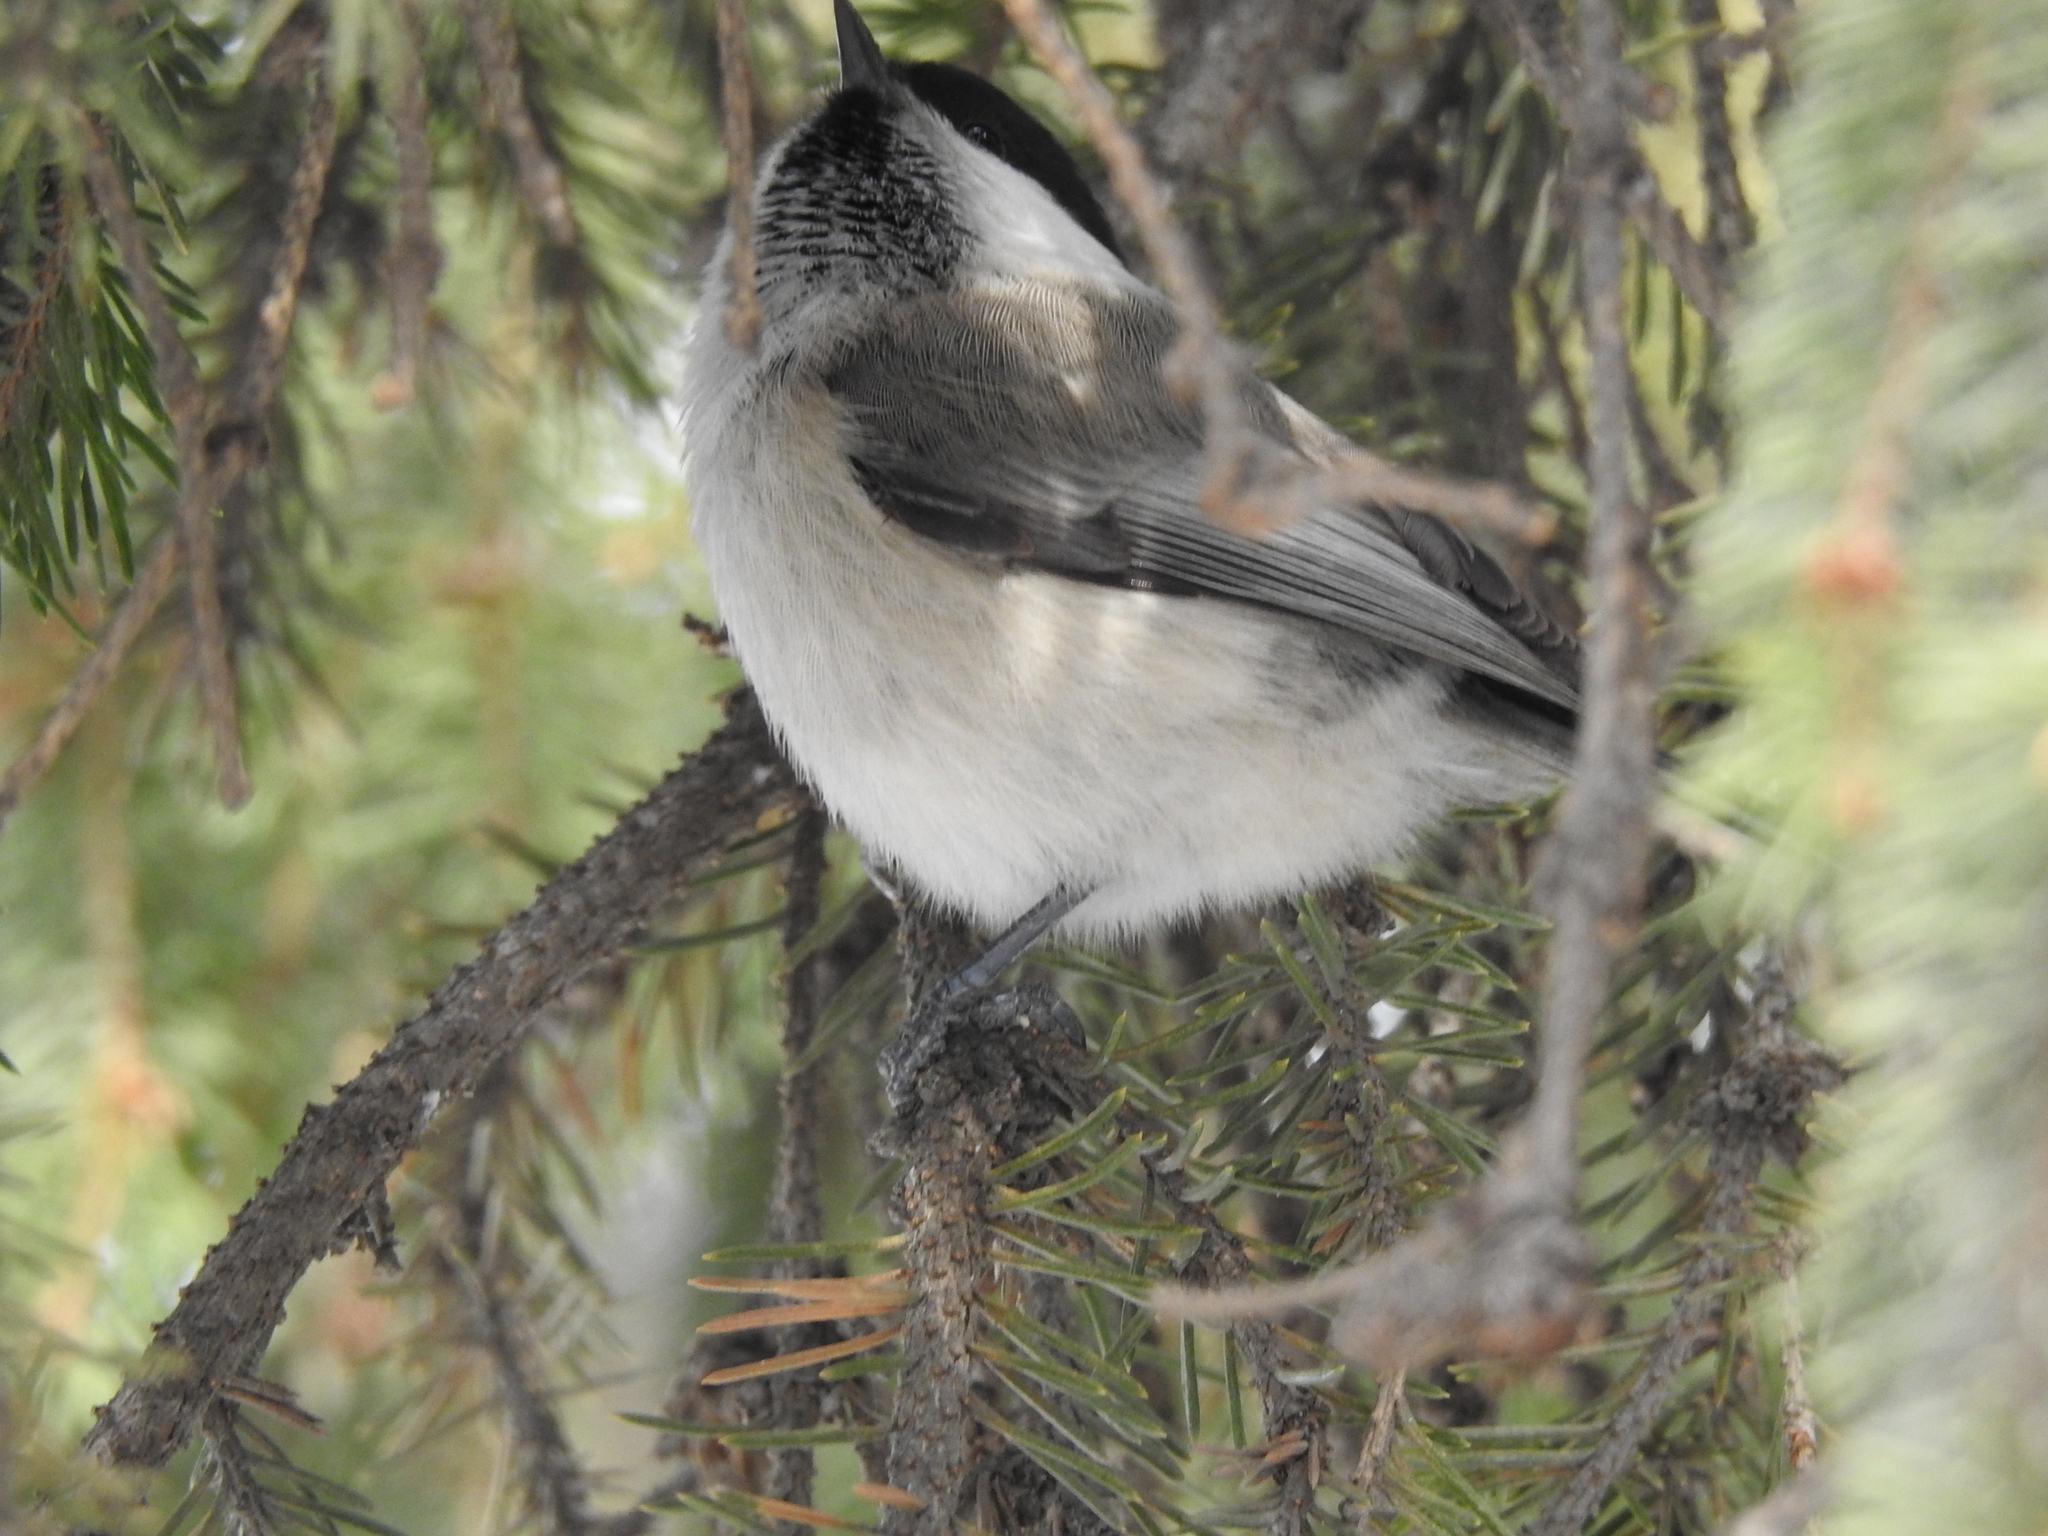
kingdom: Animalia
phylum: Chordata
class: Aves
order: Passeriformes
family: Paridae
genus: Poecile
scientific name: Poecile montanus
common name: Willow tit
